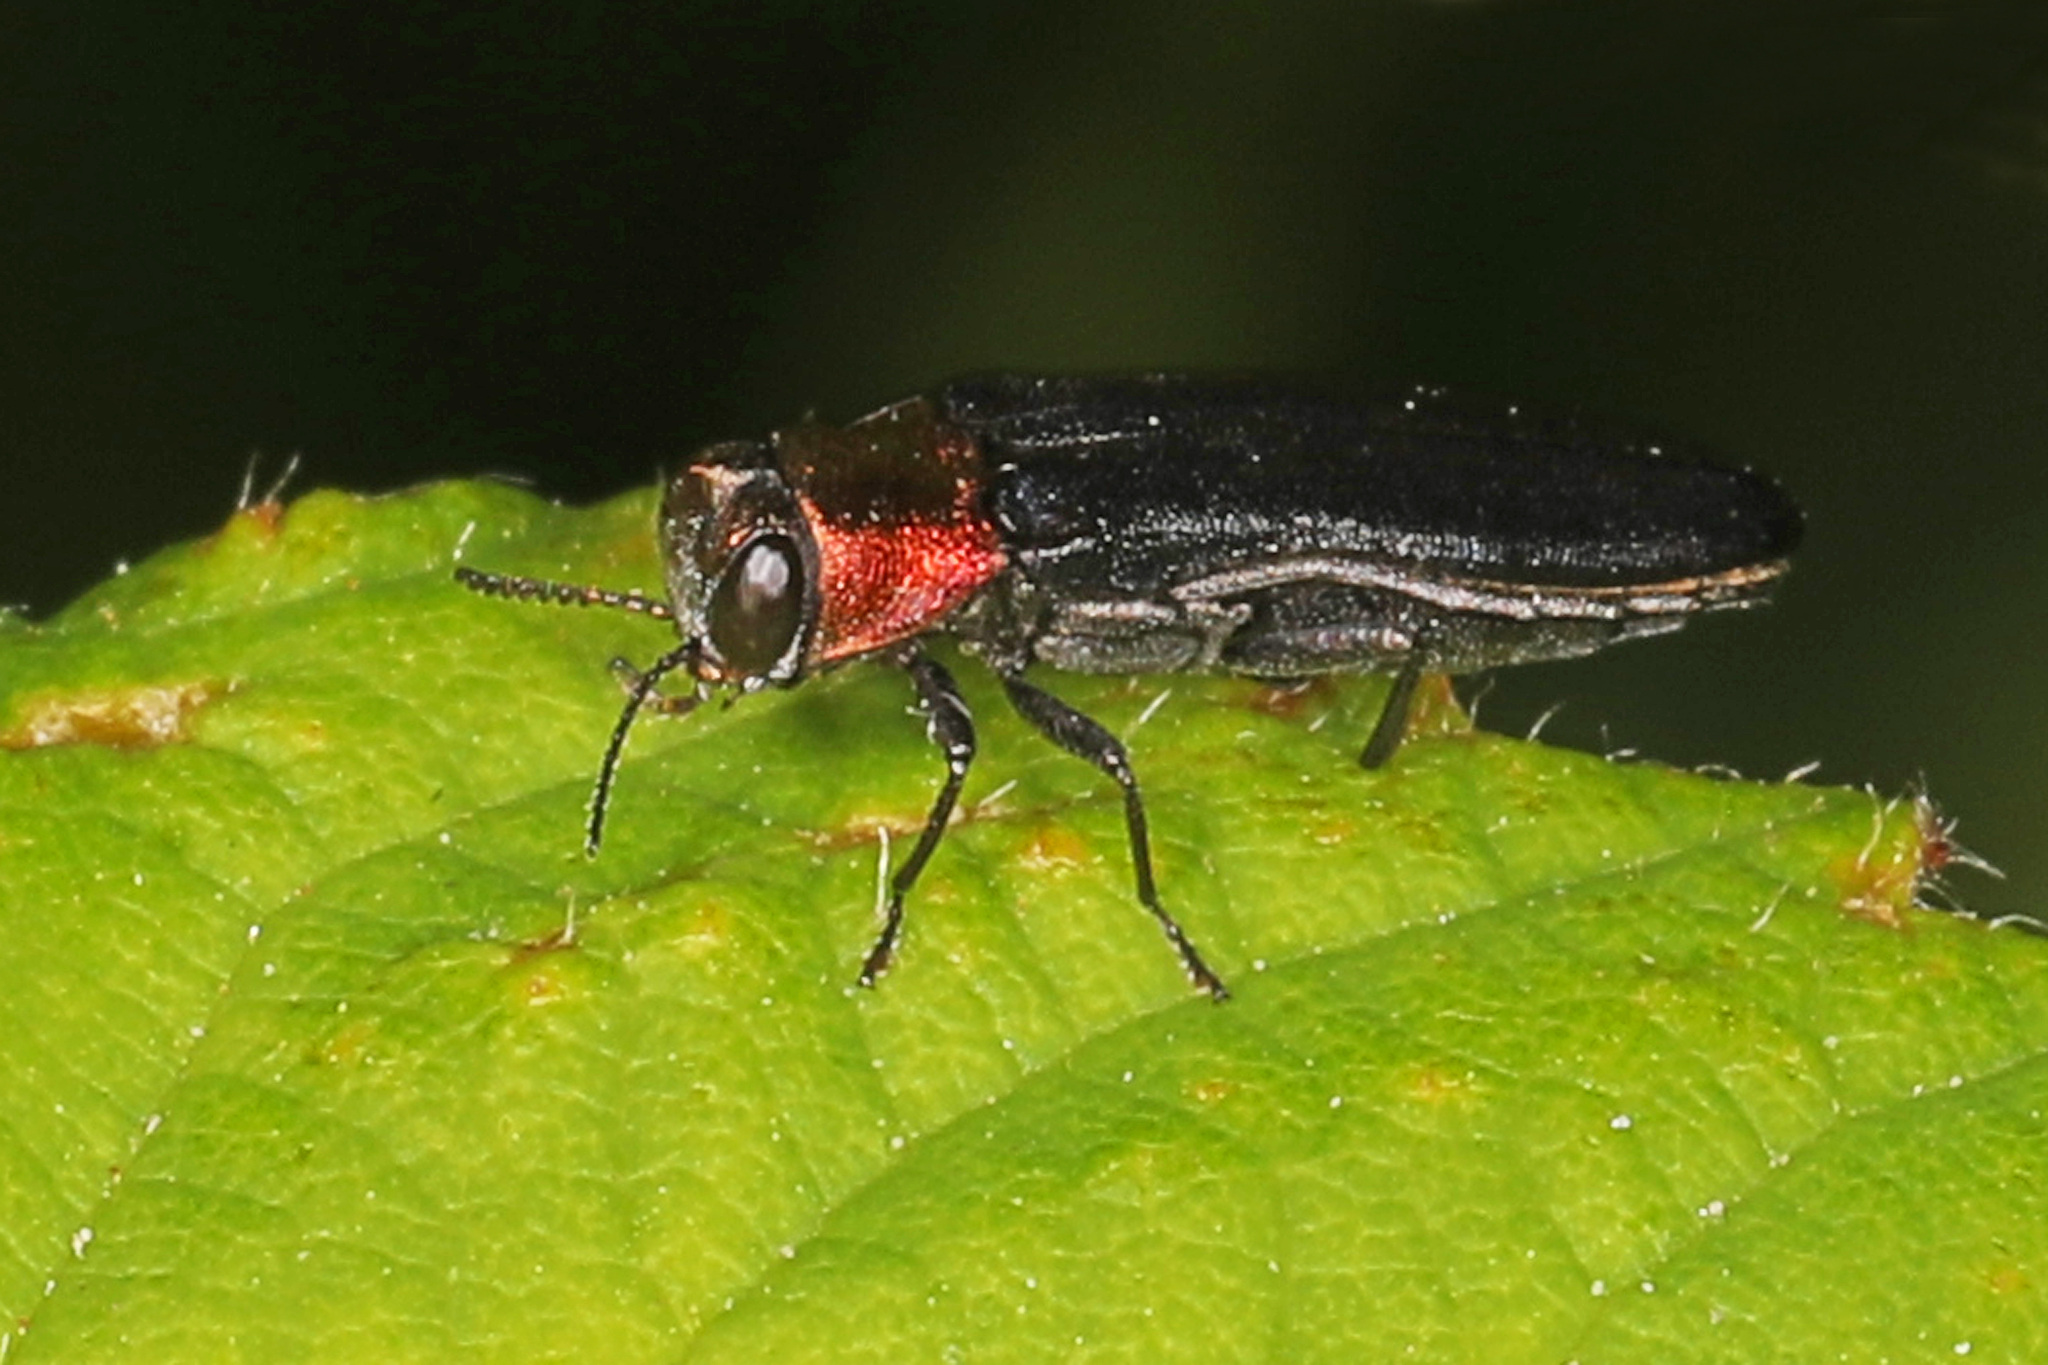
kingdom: Animalia
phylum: Arthropoda
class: Insecta
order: Coleoptera
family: Buprestidae
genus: Agrilus
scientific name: Agrilus ruficollis
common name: Red-necked cane borer beetle
